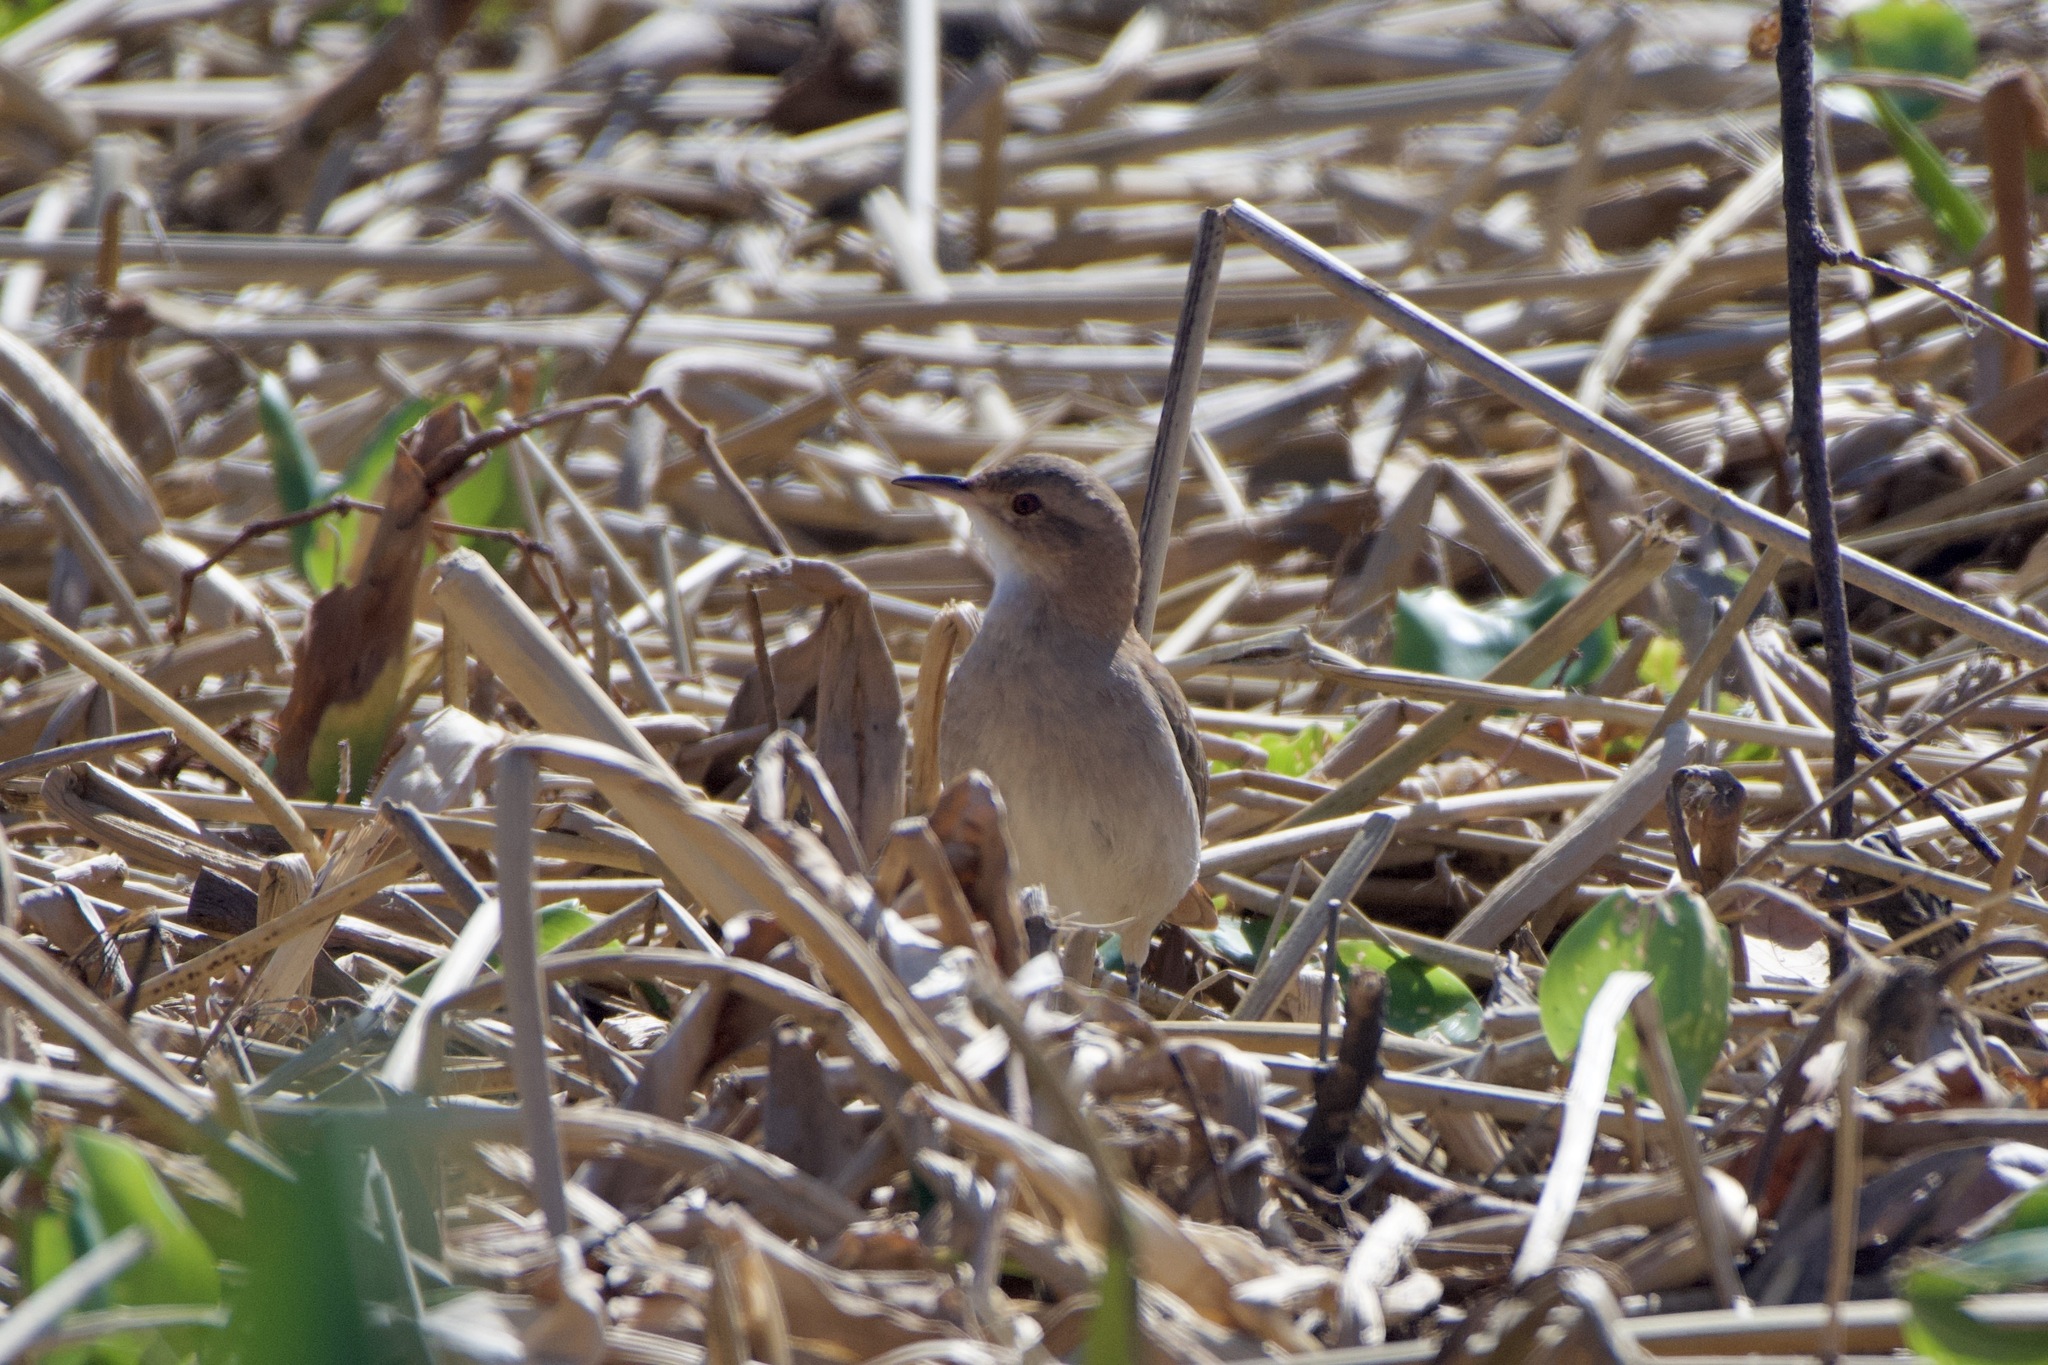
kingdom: Animalia
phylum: Chordata
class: Aves
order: Passeriformes
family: Furnariidae
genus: Furnarius
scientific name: Furnarius rufus
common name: Rufous hornero
